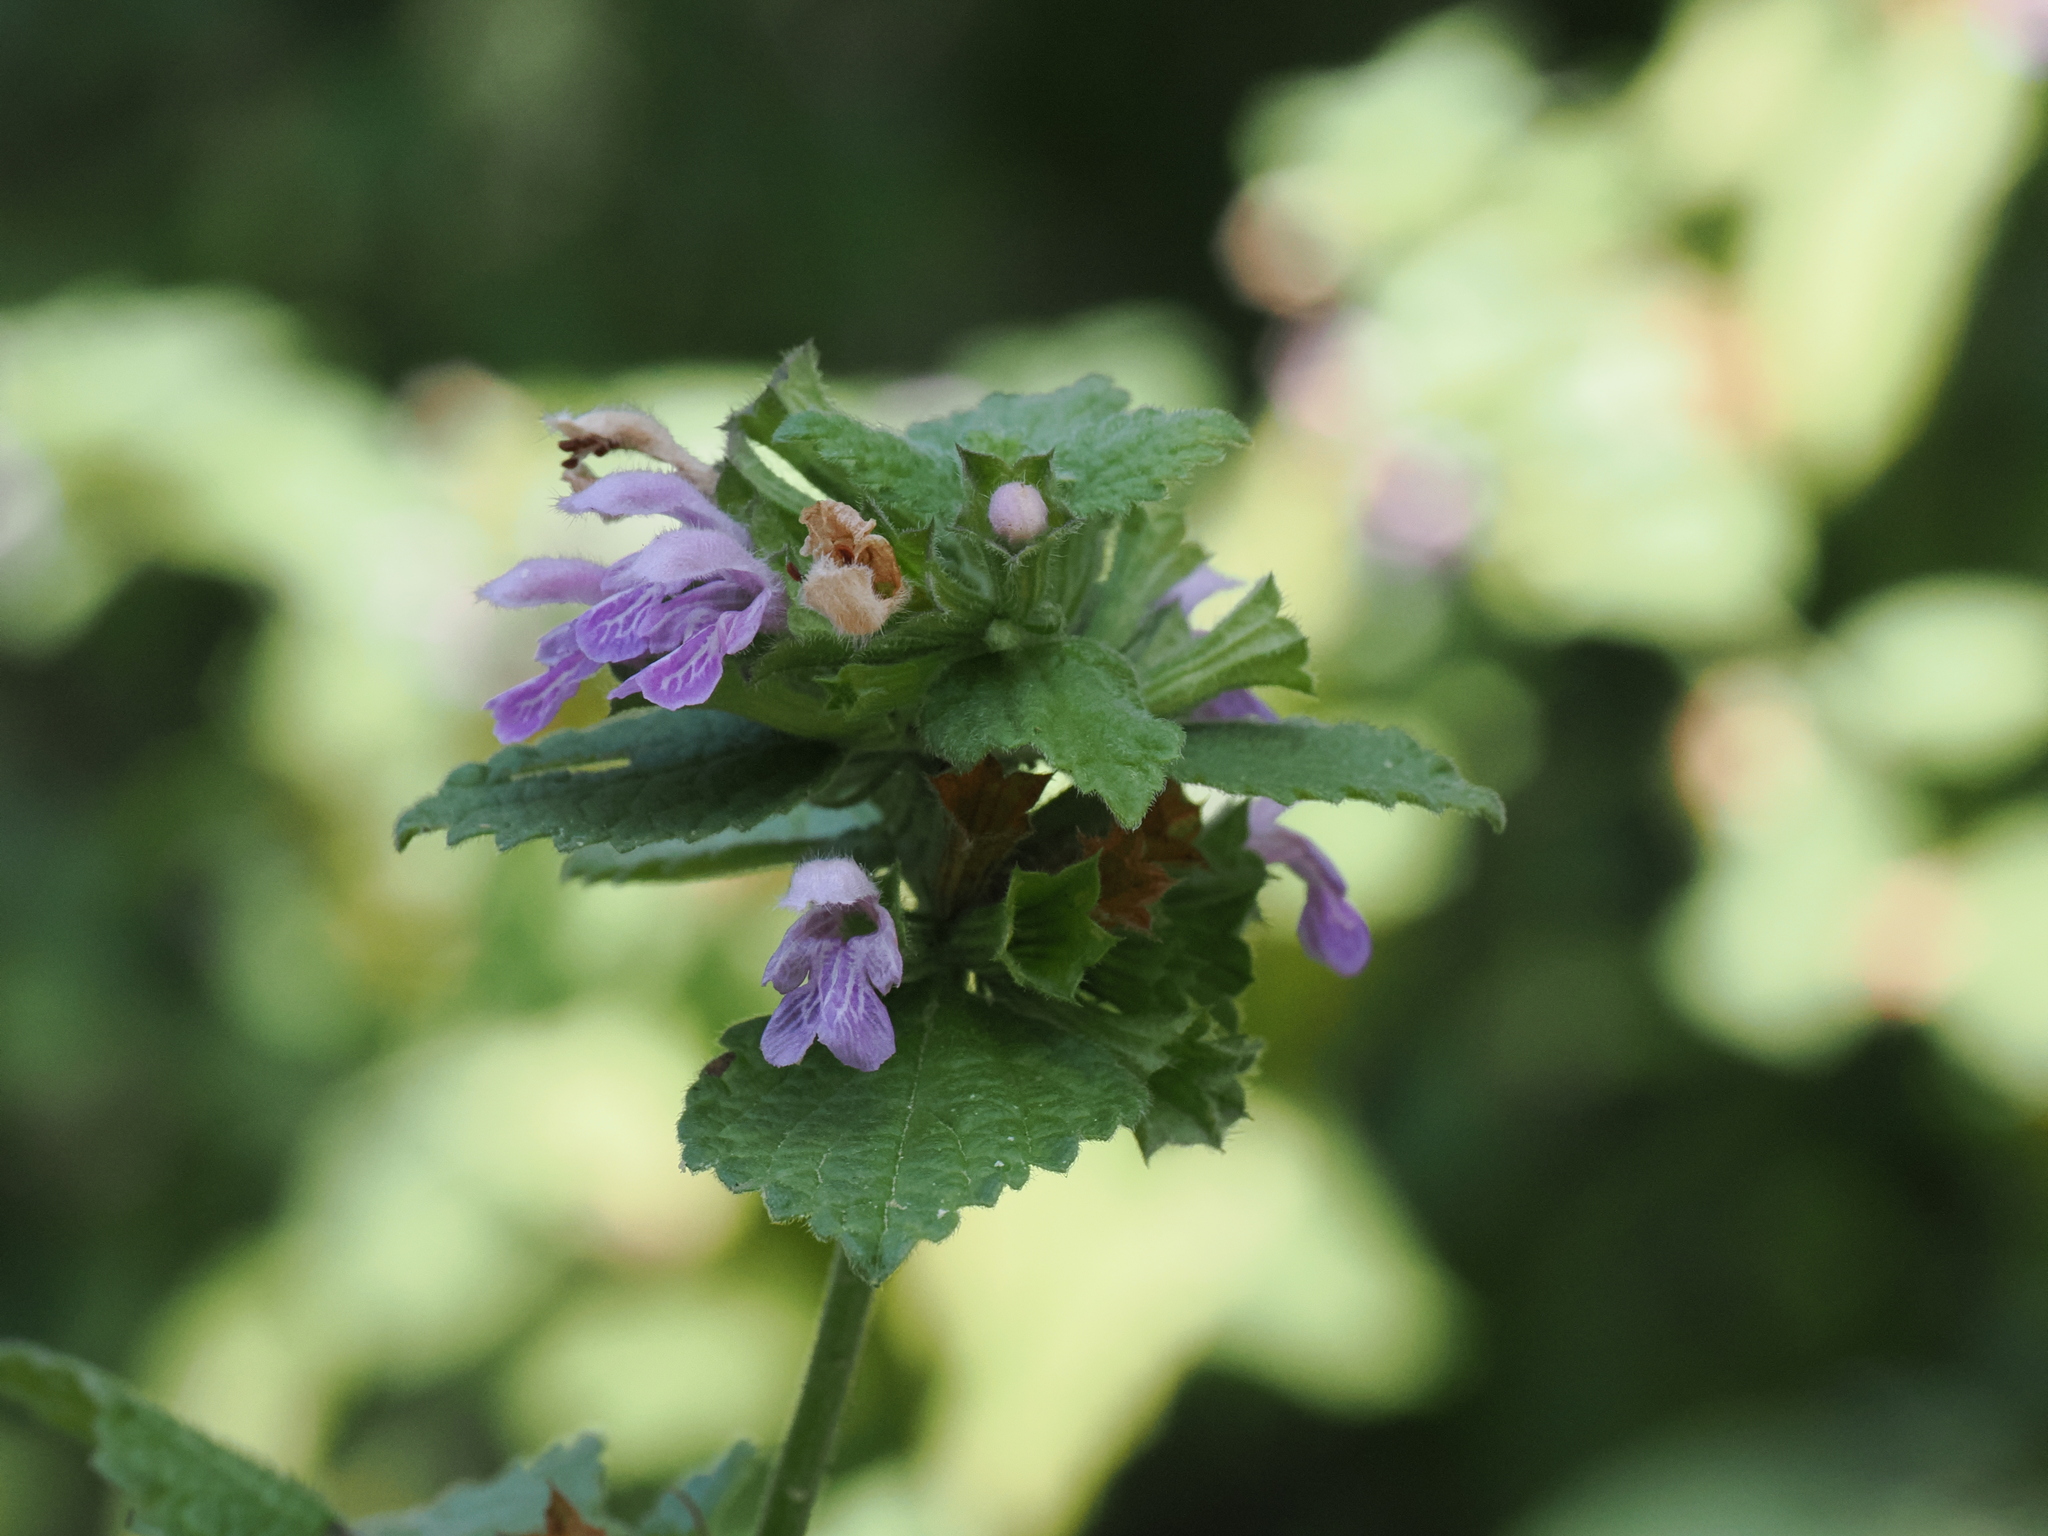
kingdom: Plantae
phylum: Tracheophyta
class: Magnoliopsida
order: Lamiales
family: Lamiaceae
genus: Ballota
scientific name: Ballota nigra
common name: Black horehound
